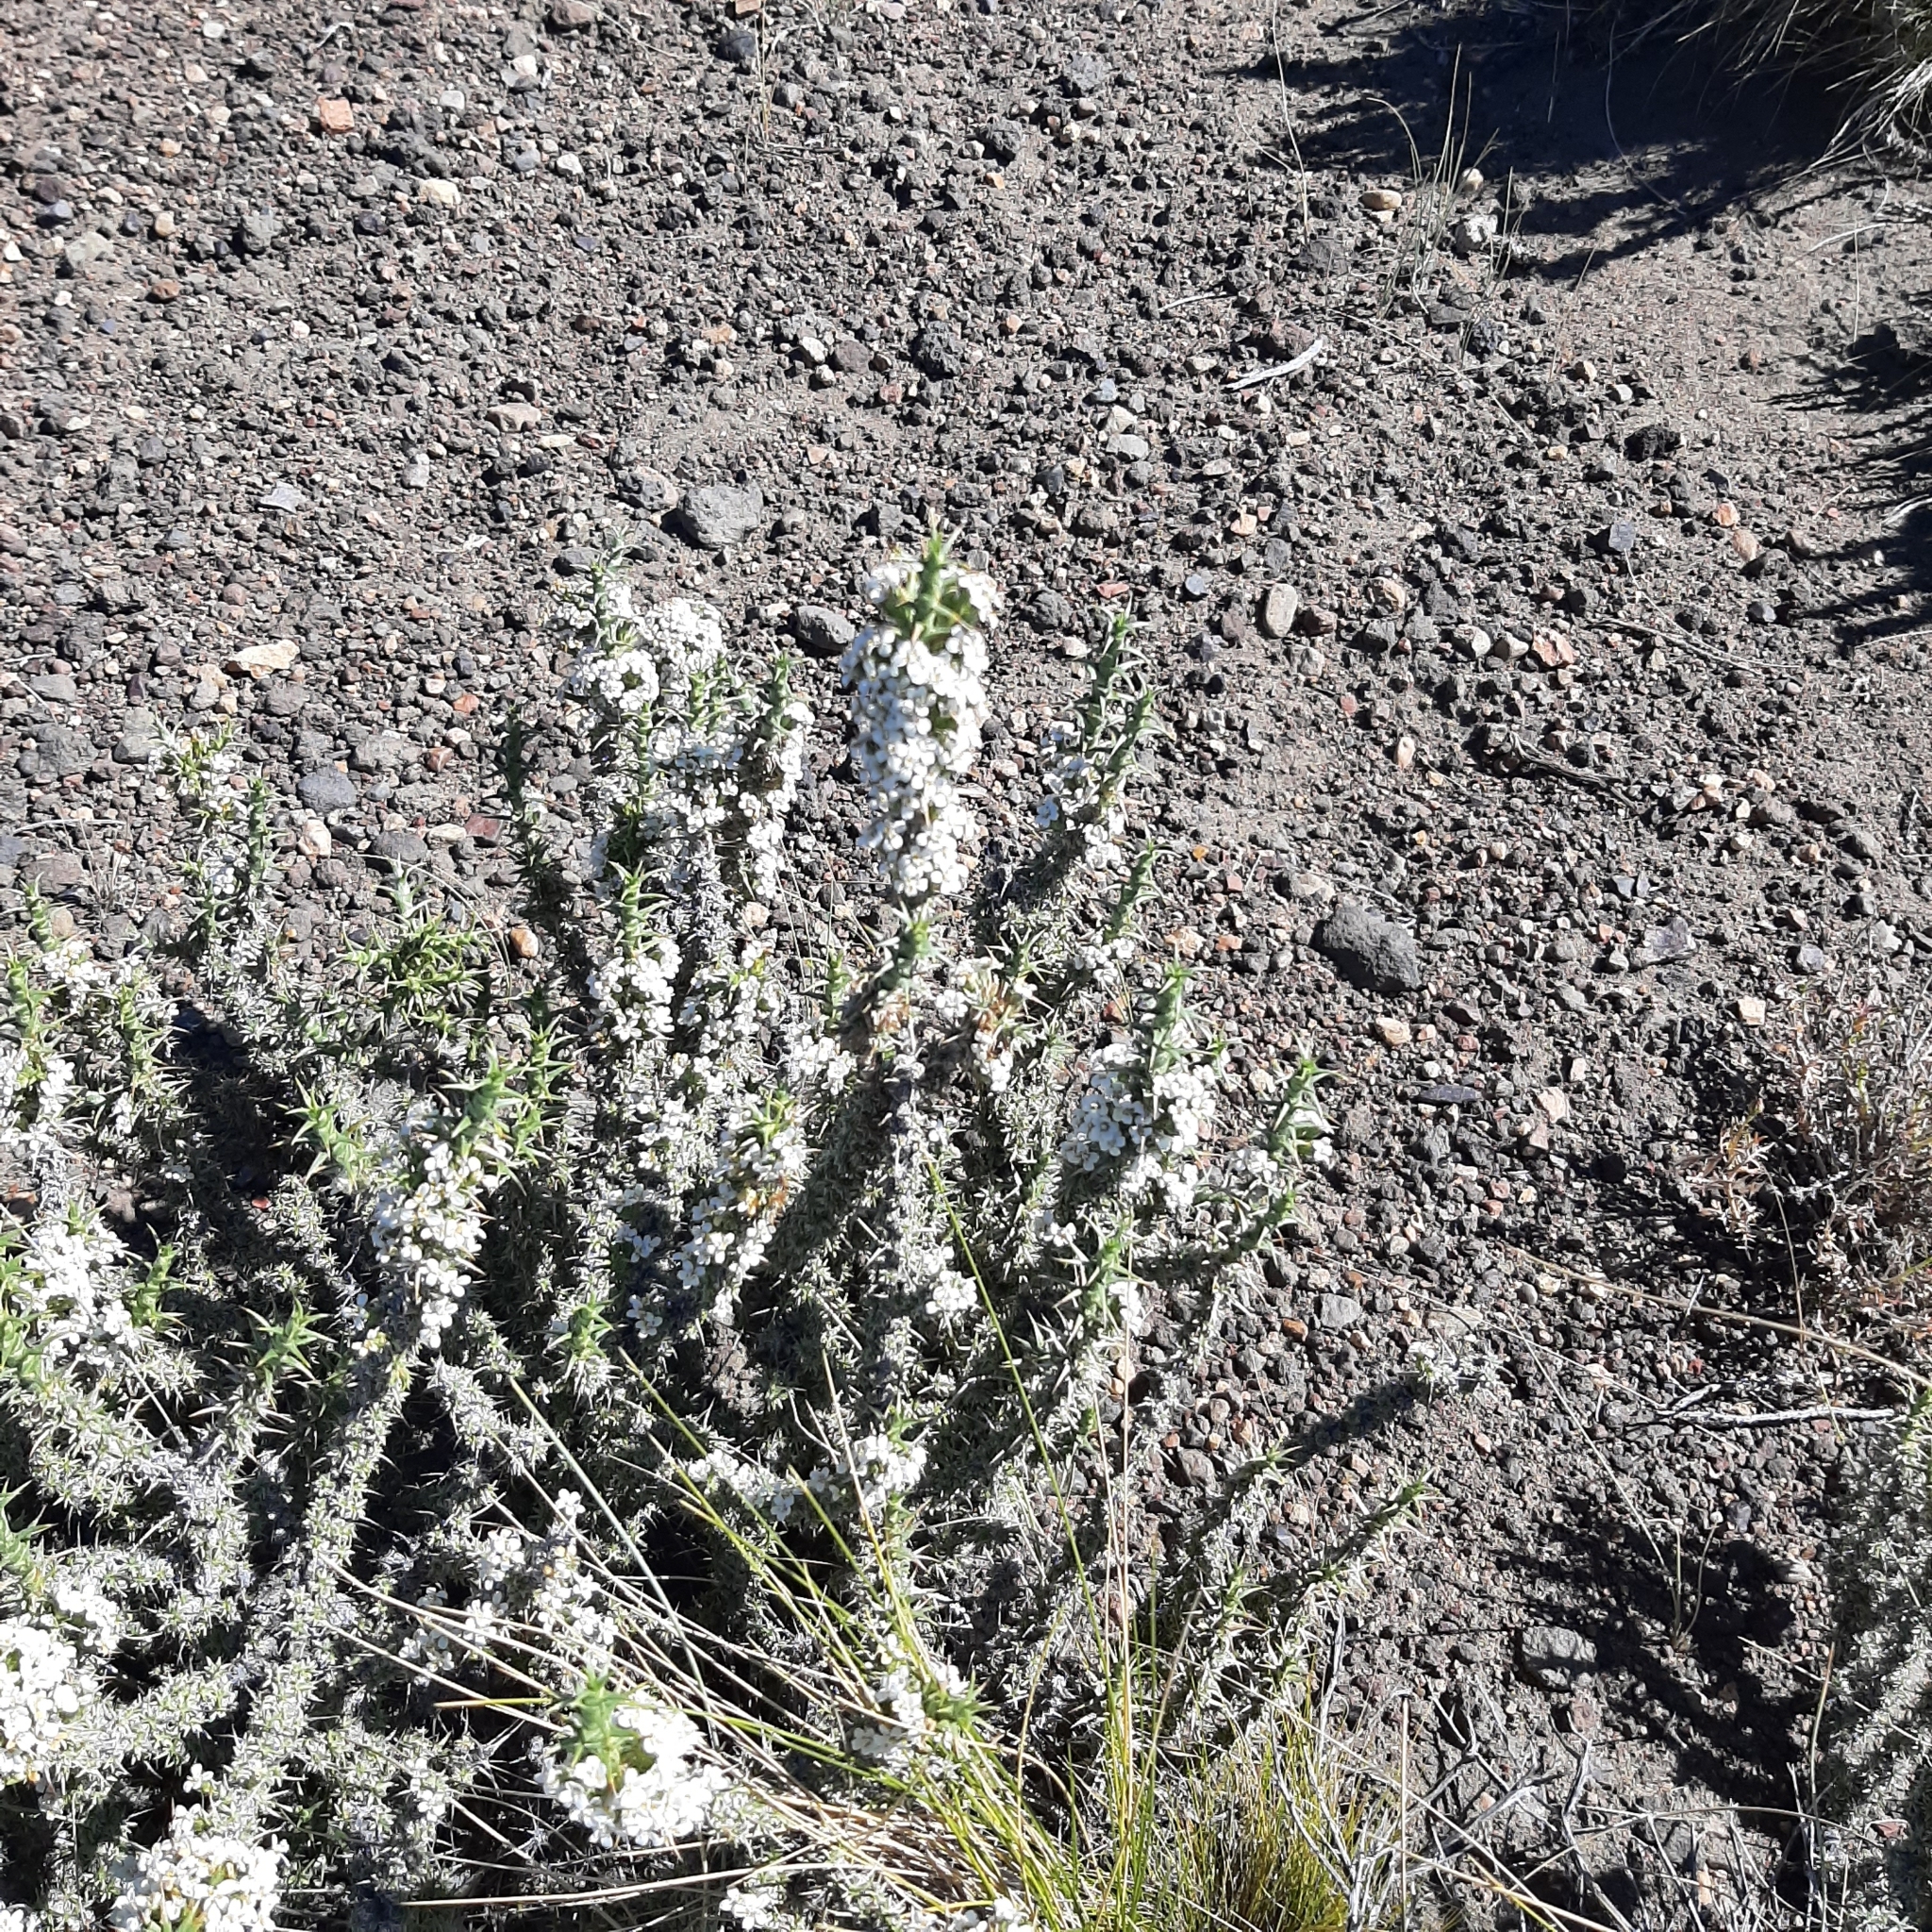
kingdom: Plantae
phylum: Tracheophyta
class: Magnoliopsida
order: Asterales
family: Asteraceae
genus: Nassauvia
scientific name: Nassauvia axillaris
